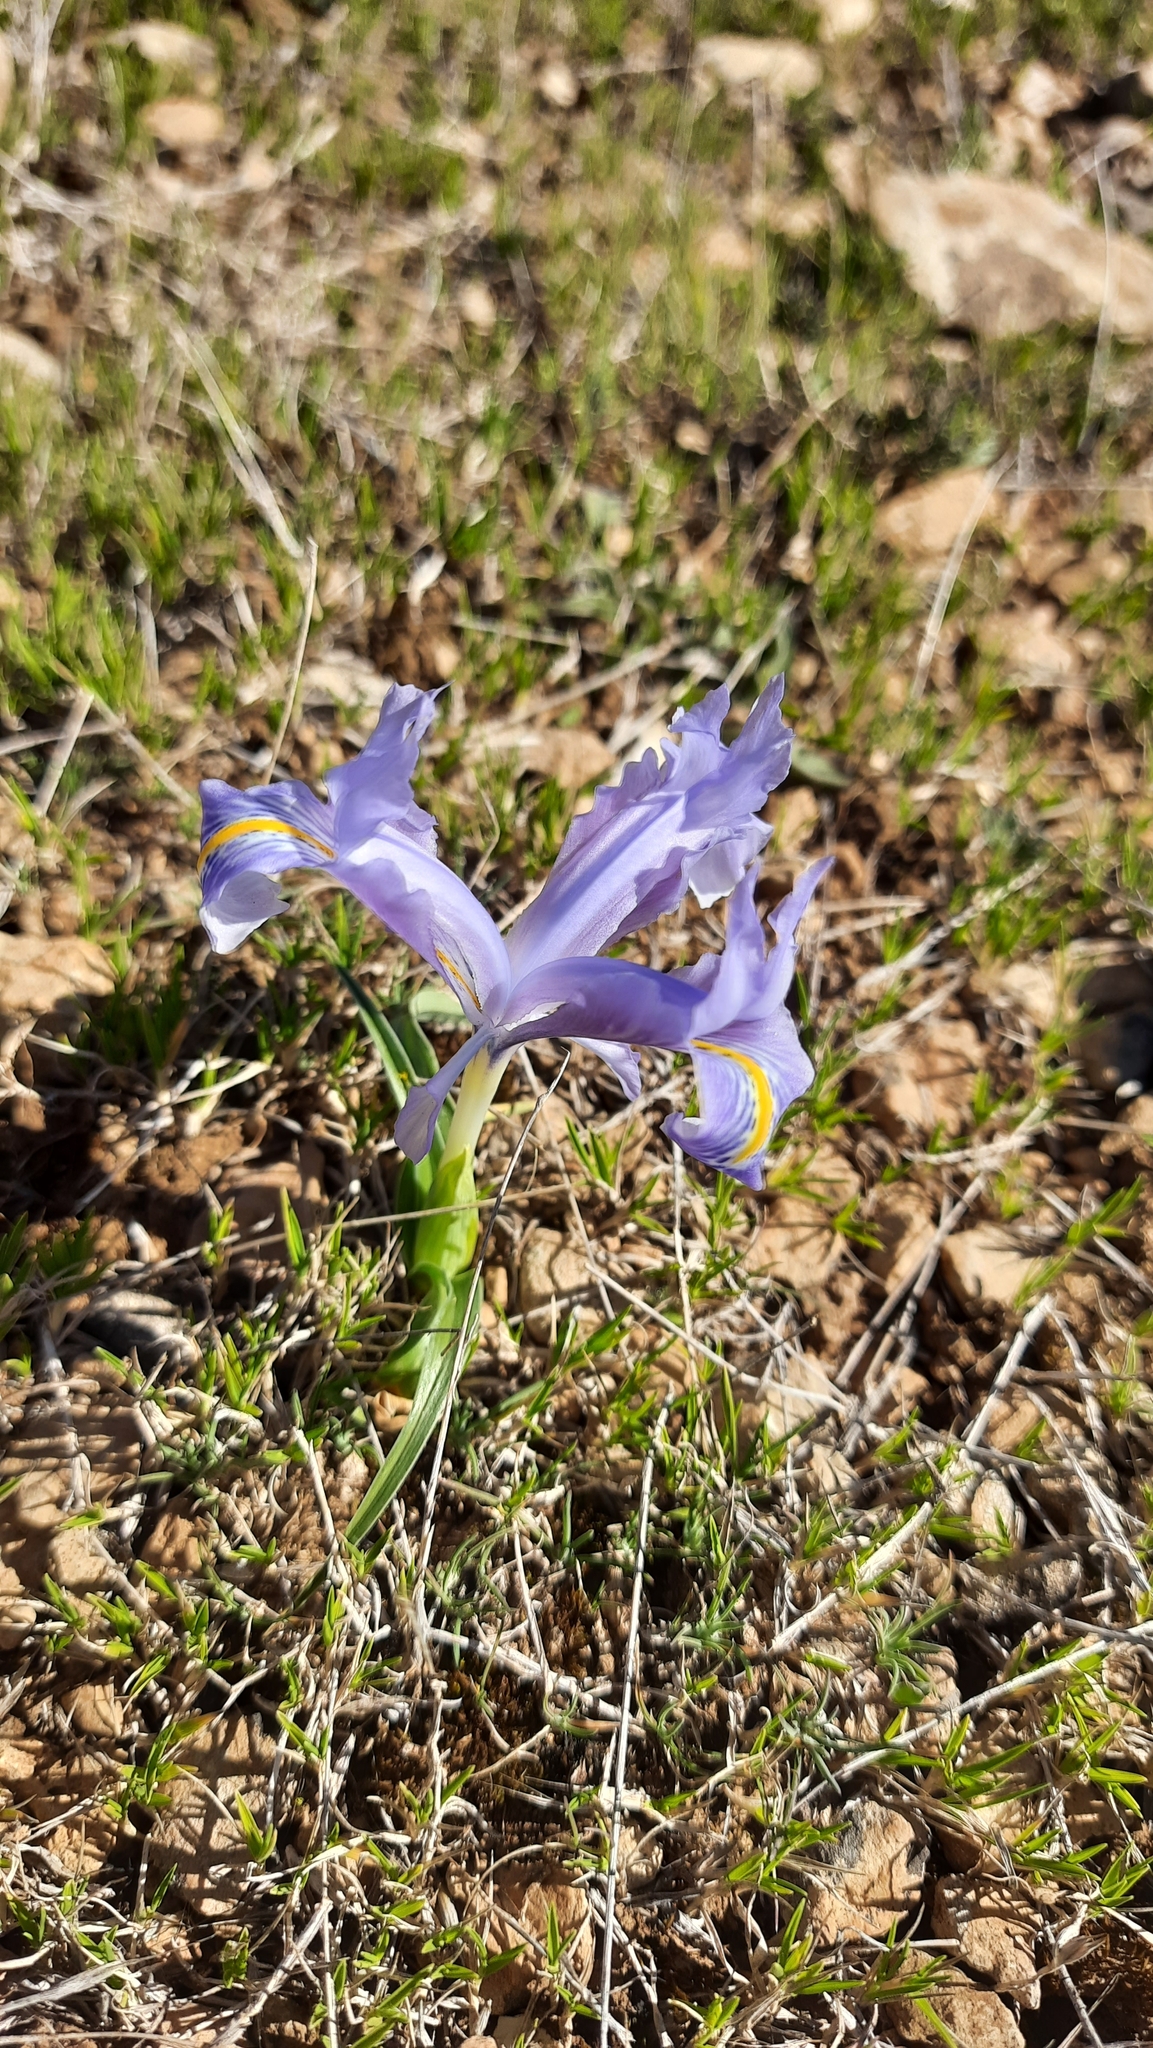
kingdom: Plantae
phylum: Tracheophyta
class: Liliopsida
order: Asparagales
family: Iridaceae
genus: Iris
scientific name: Iris planifolia
